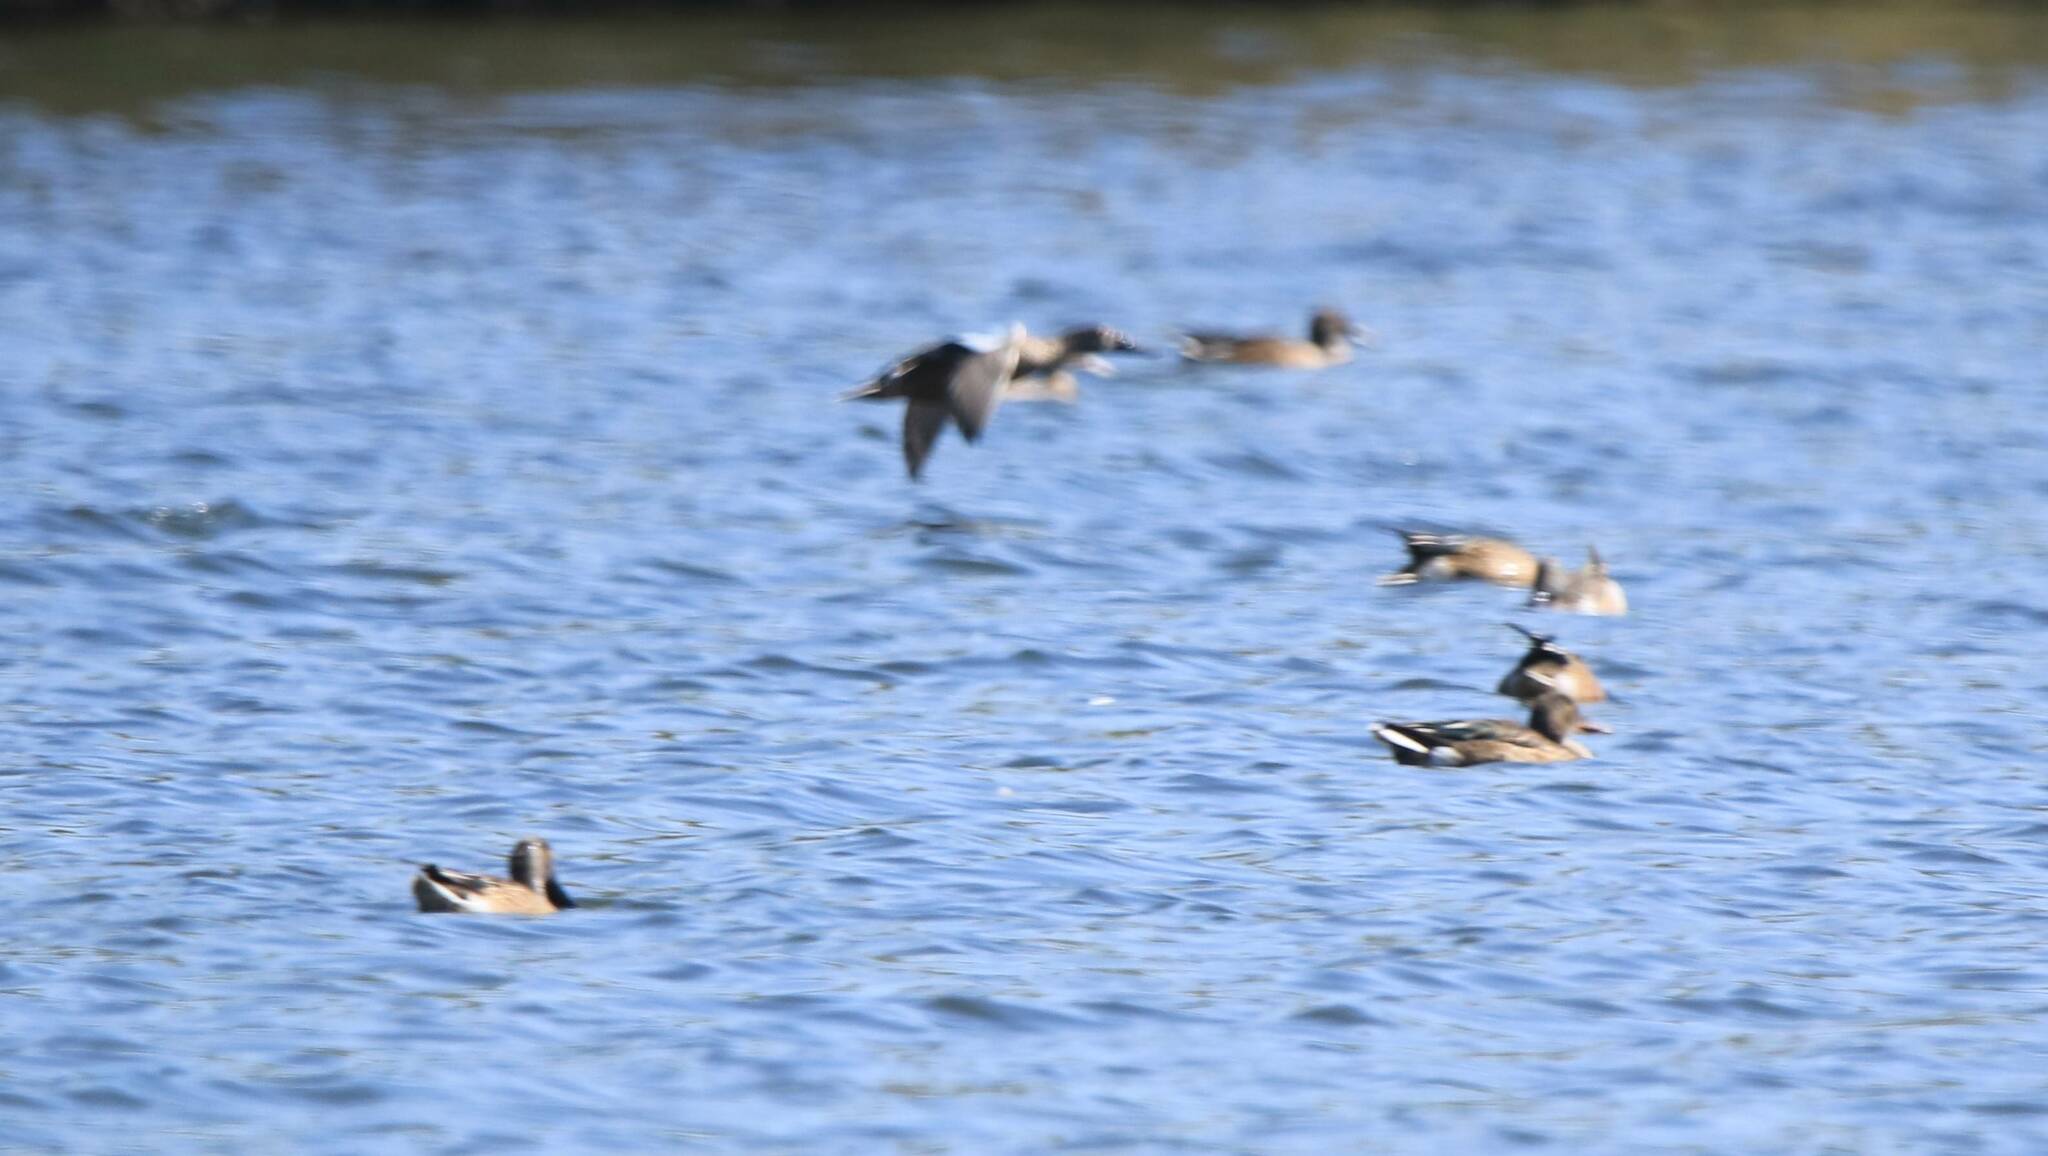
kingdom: Animalia
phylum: Chordata
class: Aves
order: Anseriformes
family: Anatidae
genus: Spatula
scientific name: Spatula clypeata
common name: Northern shoveler
